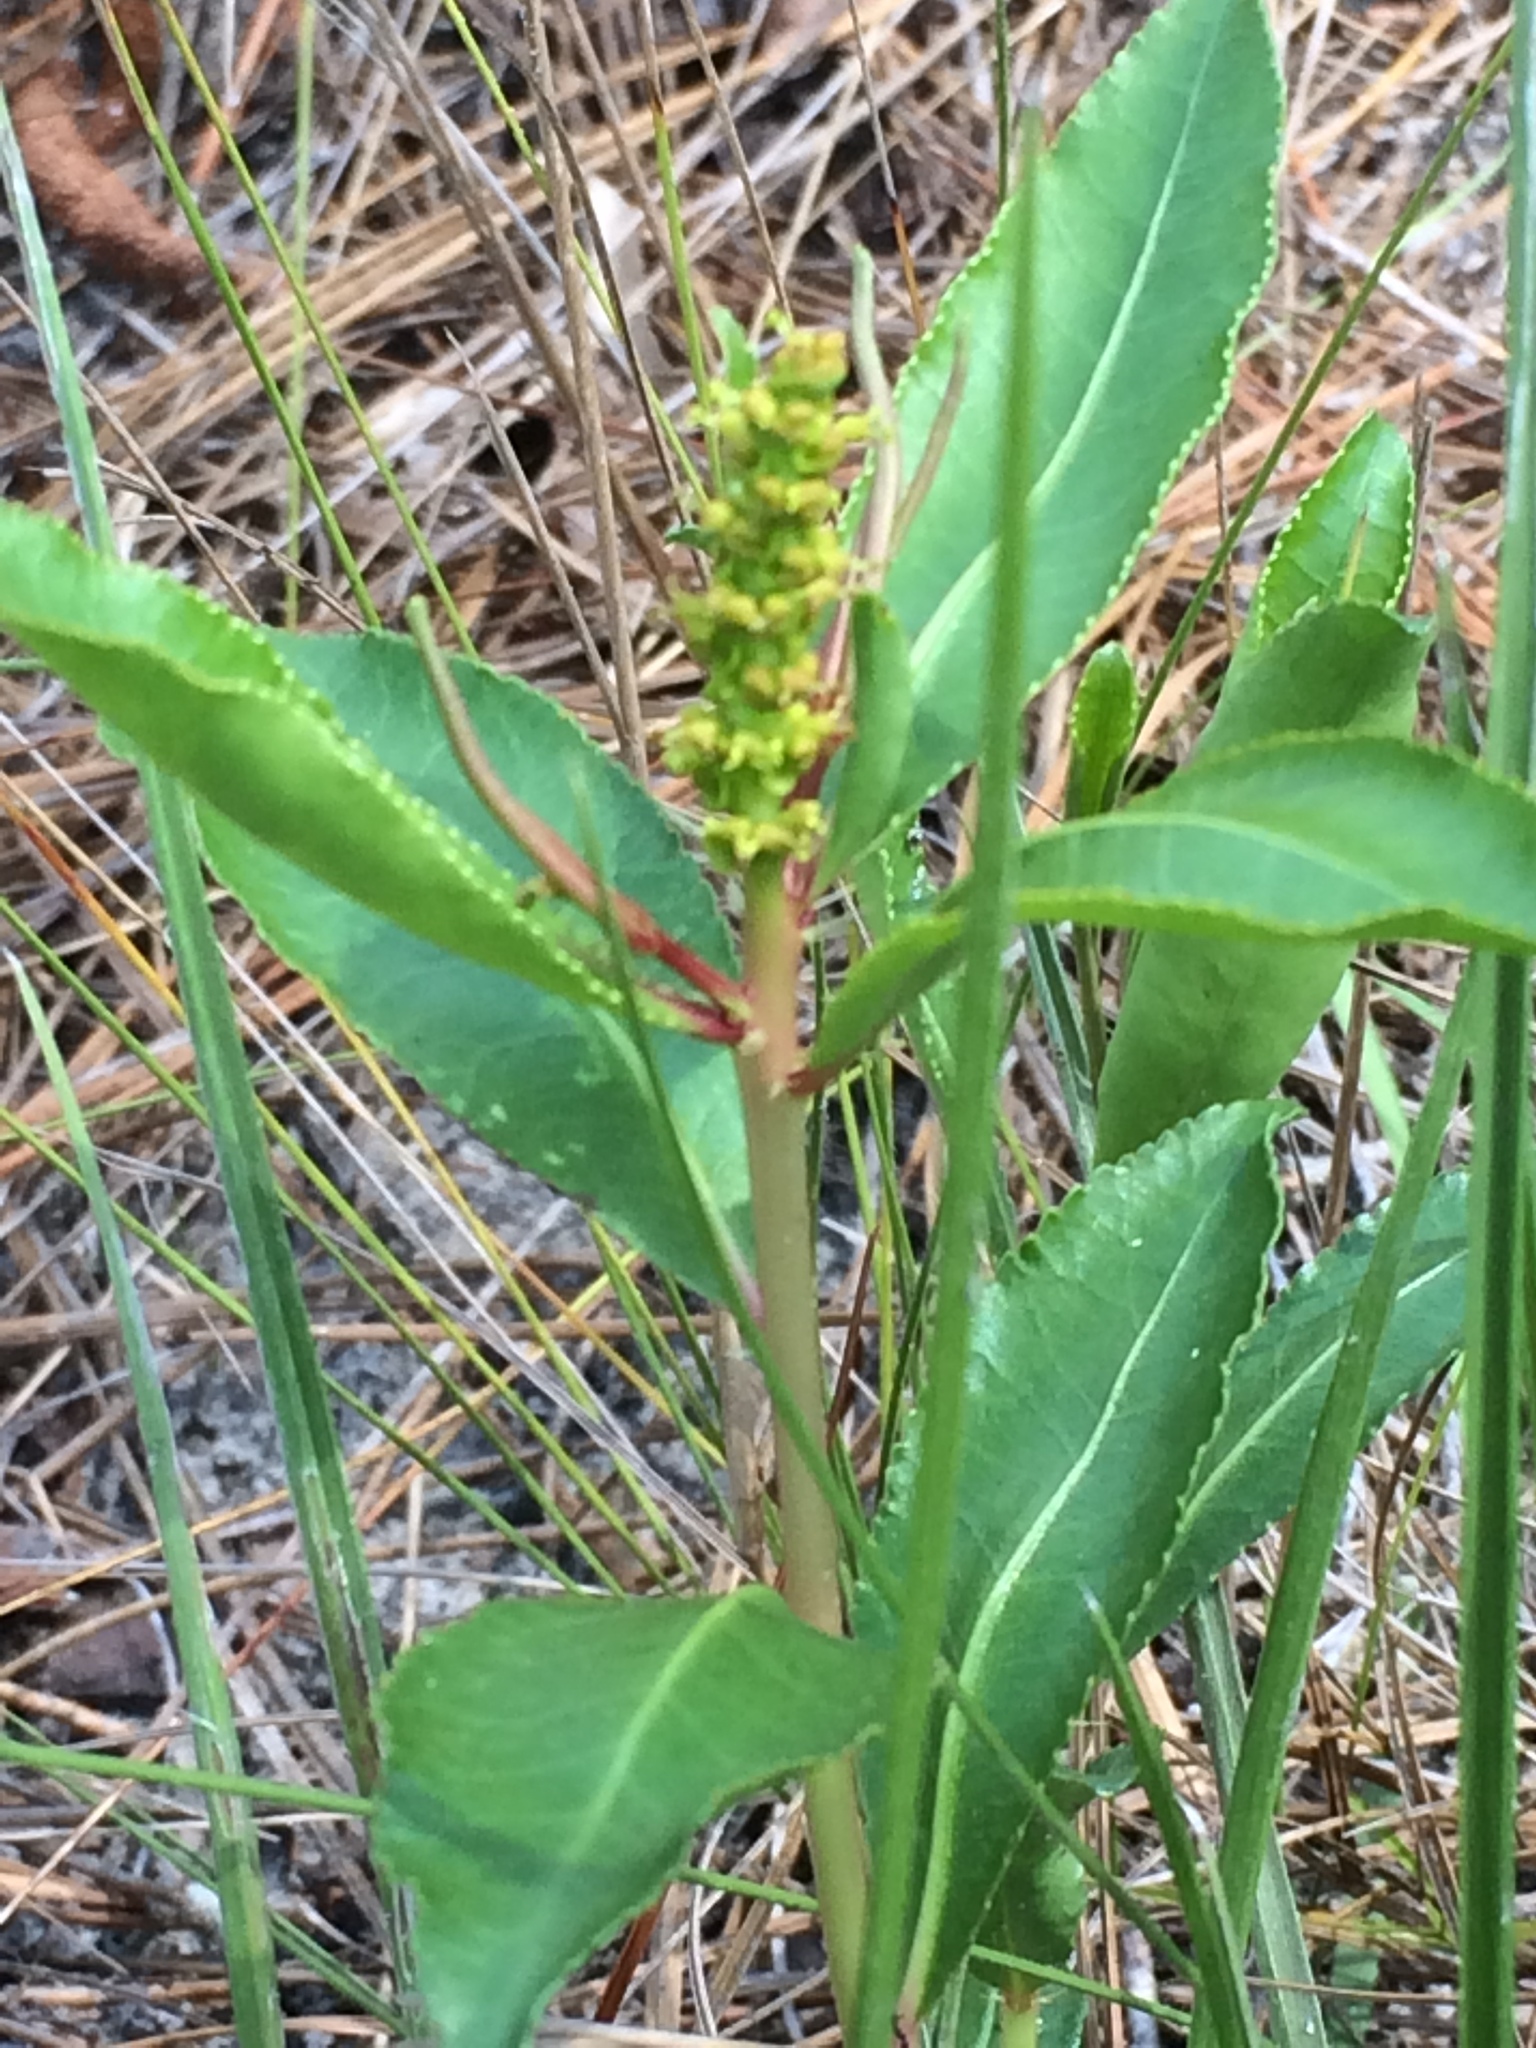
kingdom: Plantae
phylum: Tracheophyta
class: Magnoliopsida
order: Malpighiales
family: Euphorbiaceae
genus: Stillingia
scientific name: Stillingia sylvatica
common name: Queen's-delight
